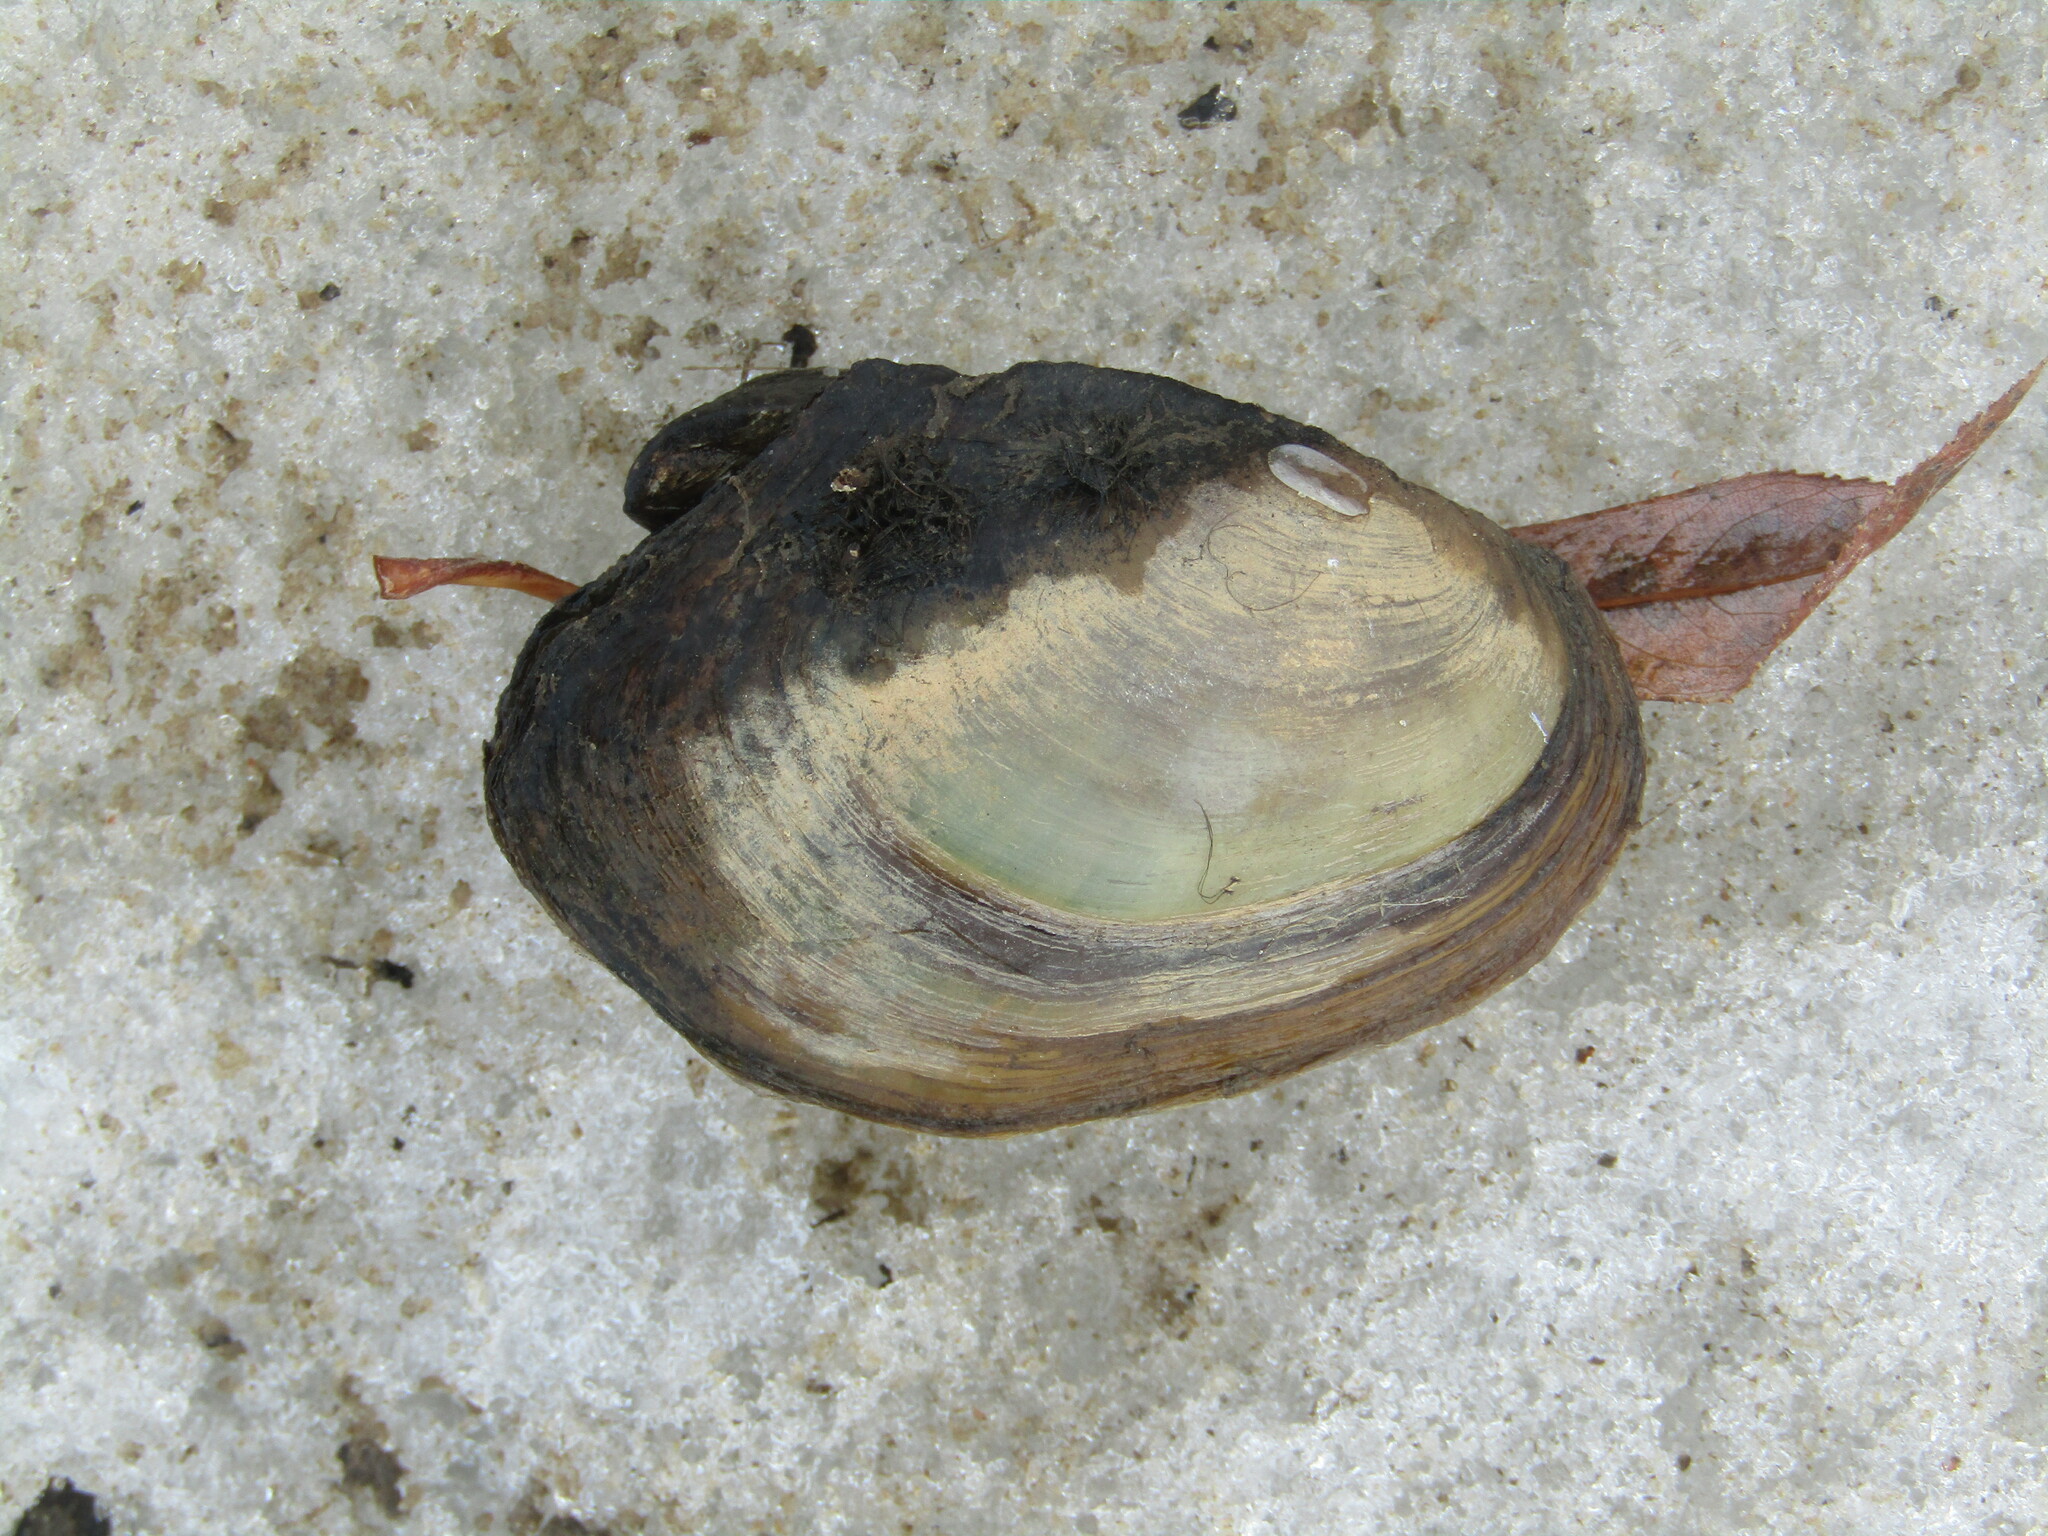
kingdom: Animalia
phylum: Mollusca
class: Bivalvia
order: Unionida
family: Unionidae
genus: Anodonta
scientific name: Anodonta anatina
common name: Duck mussel
